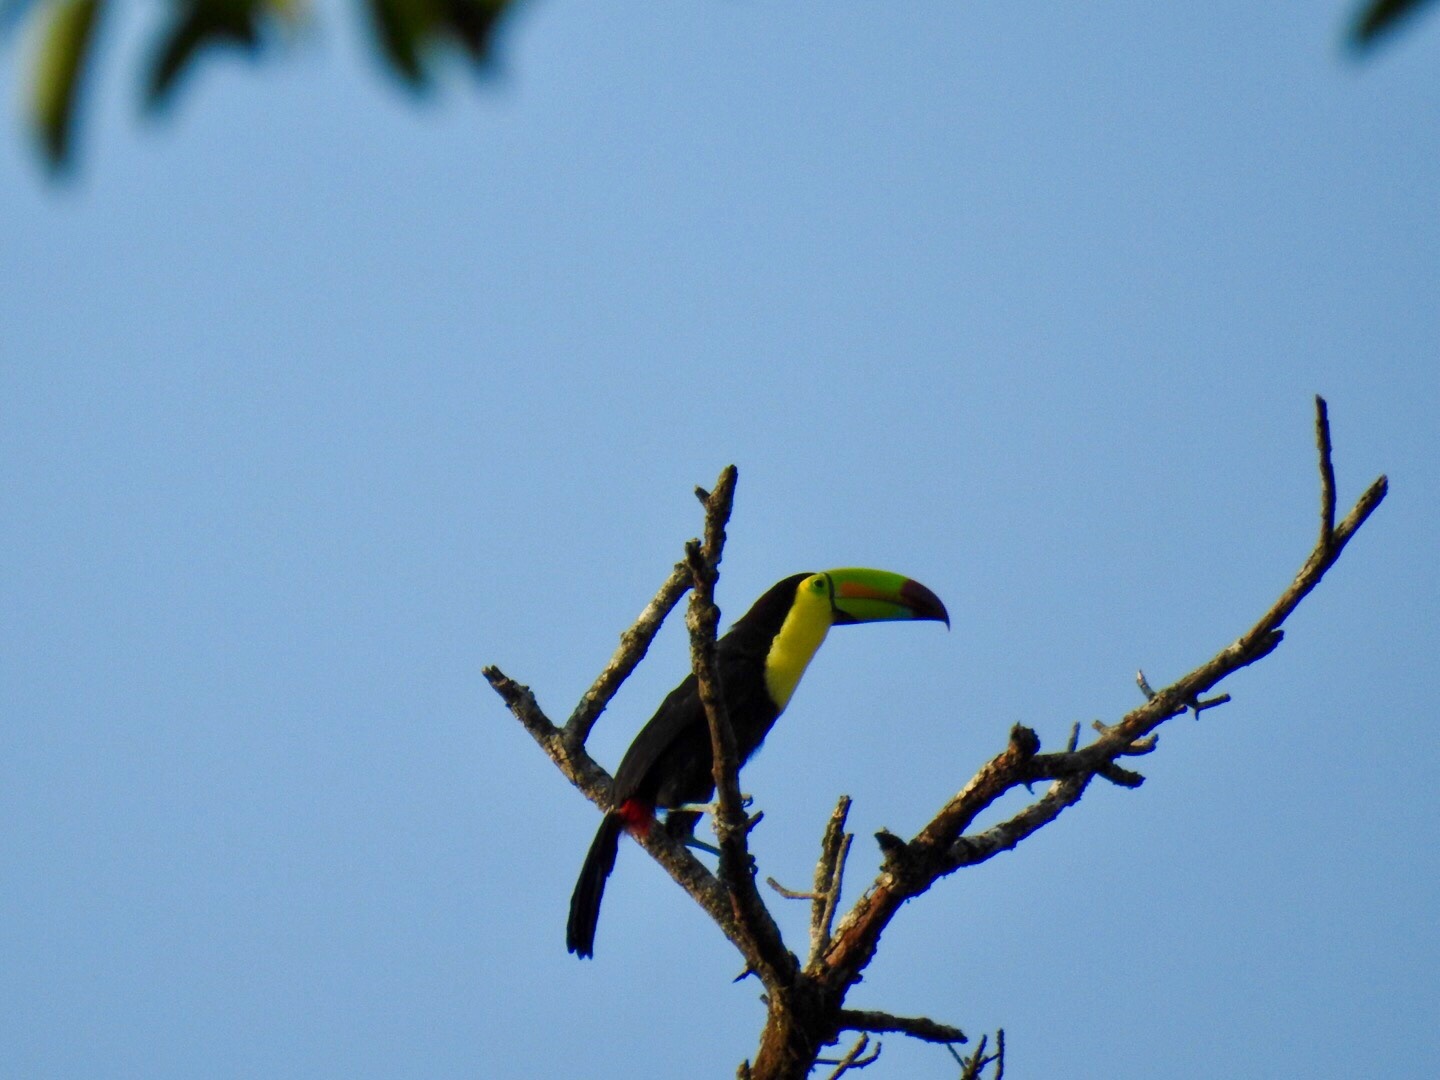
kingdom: Animalia
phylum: Chordata
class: Aves
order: Piciformes
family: Ramphastidae
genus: Ramphastos
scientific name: Ramphastos sulfuratus
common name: Keel-billed toucan
